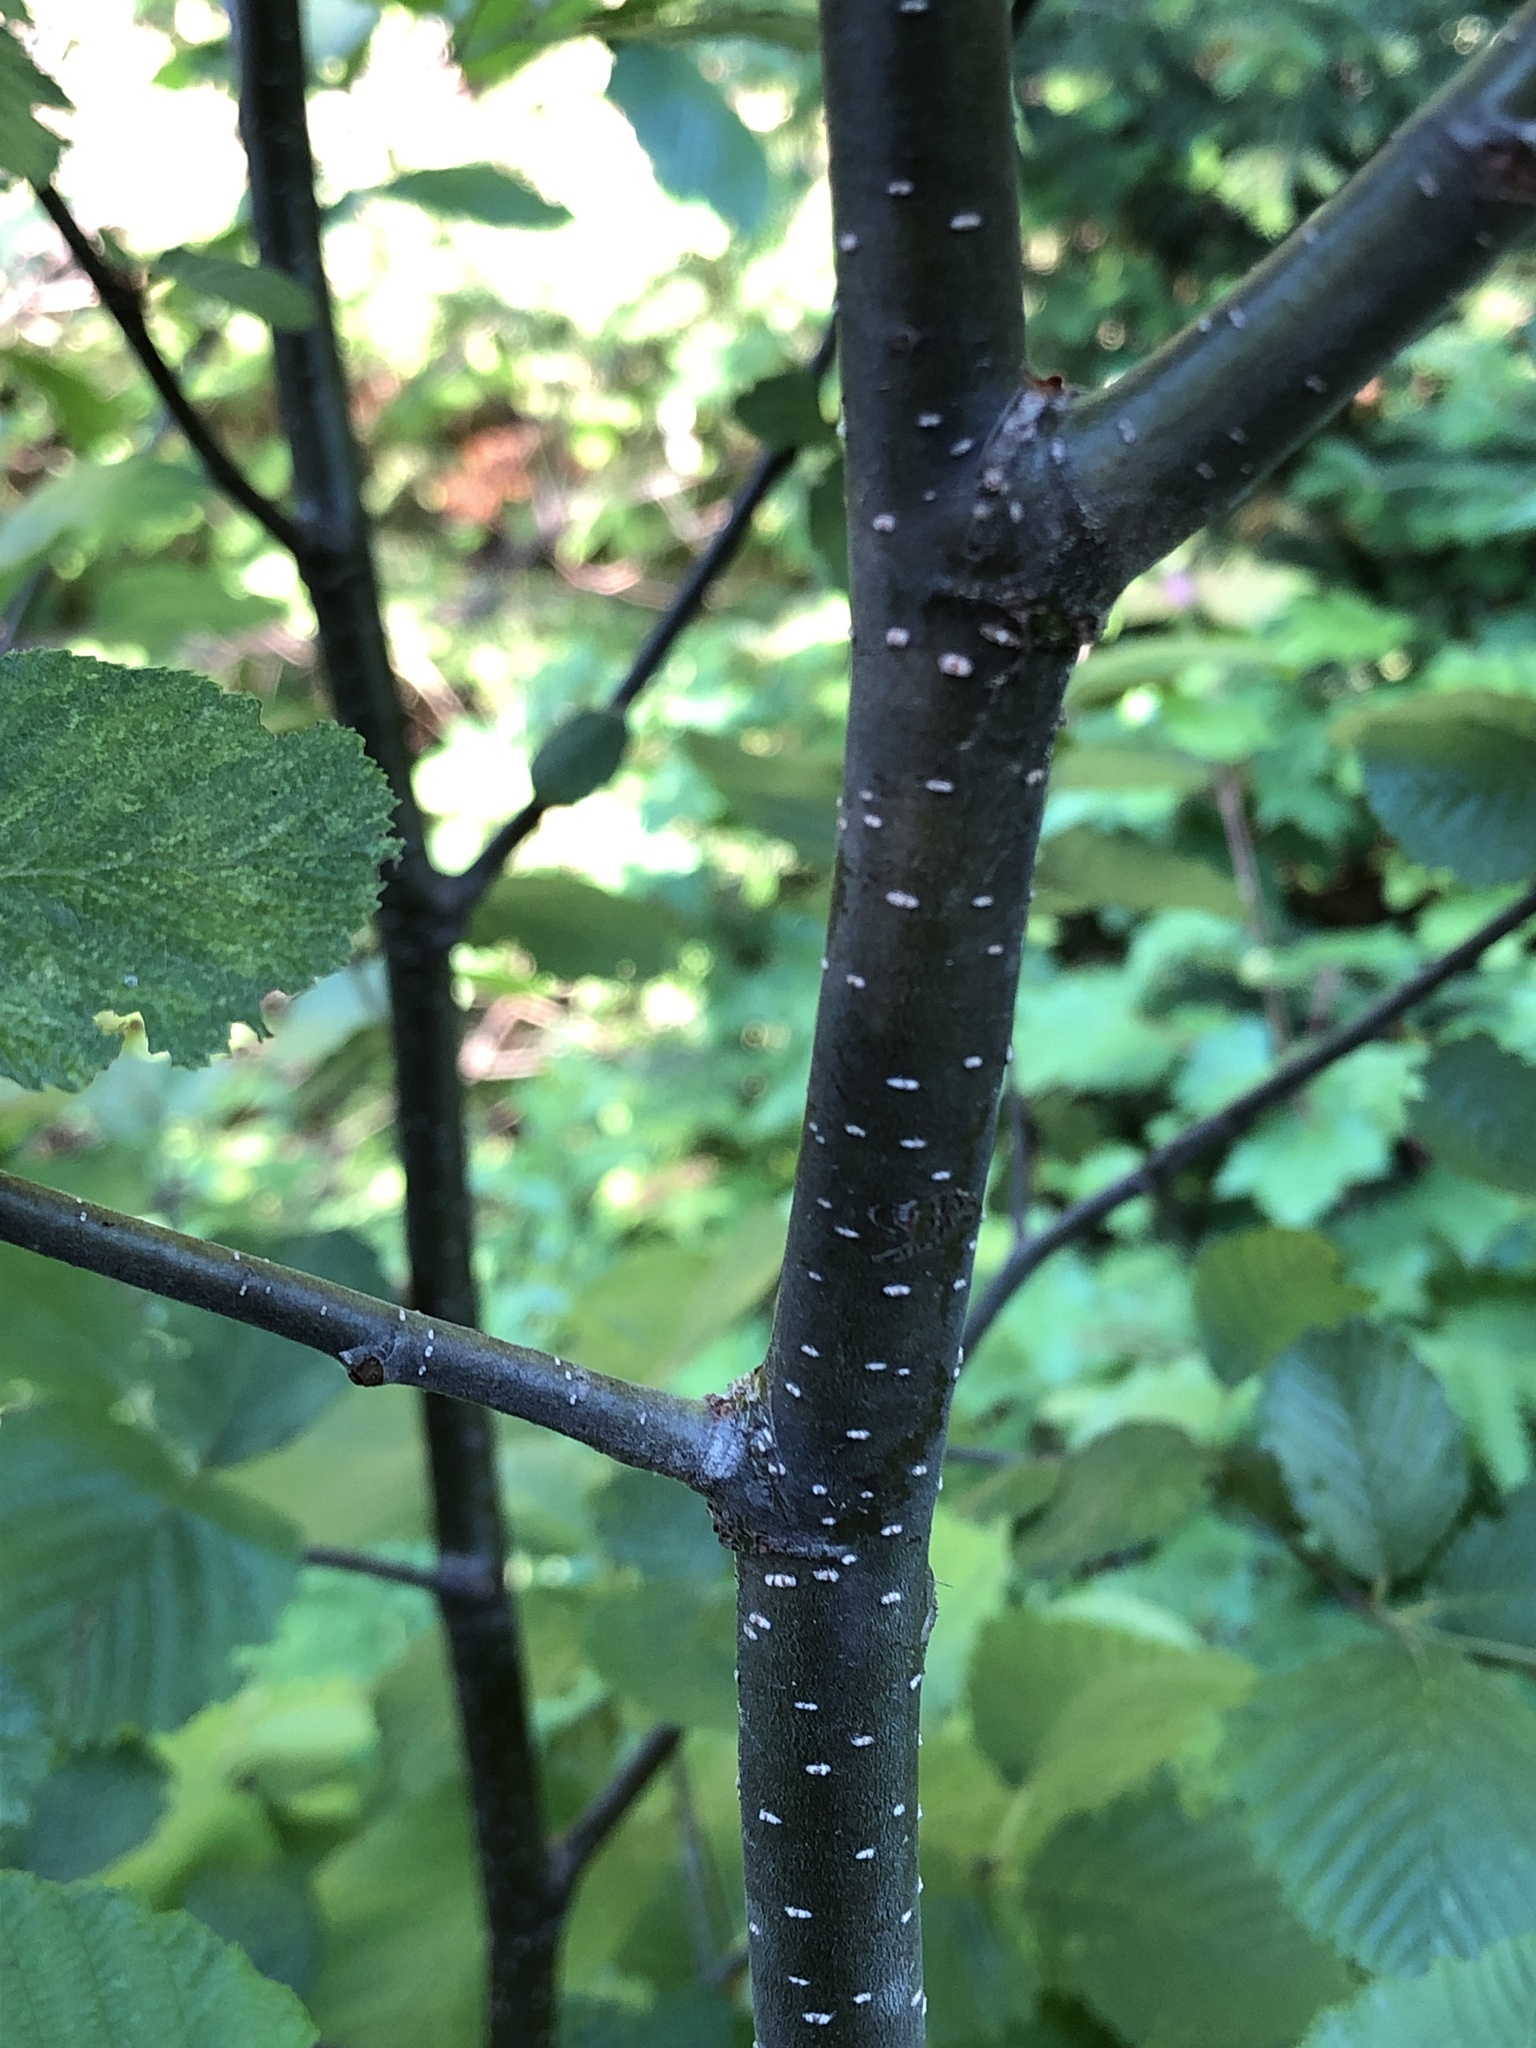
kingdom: Plantae
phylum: Tracheophyta
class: Magnoliopsida
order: Fagales
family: Betulaceae
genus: Alnus
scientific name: Alnus incana
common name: Grey alder
